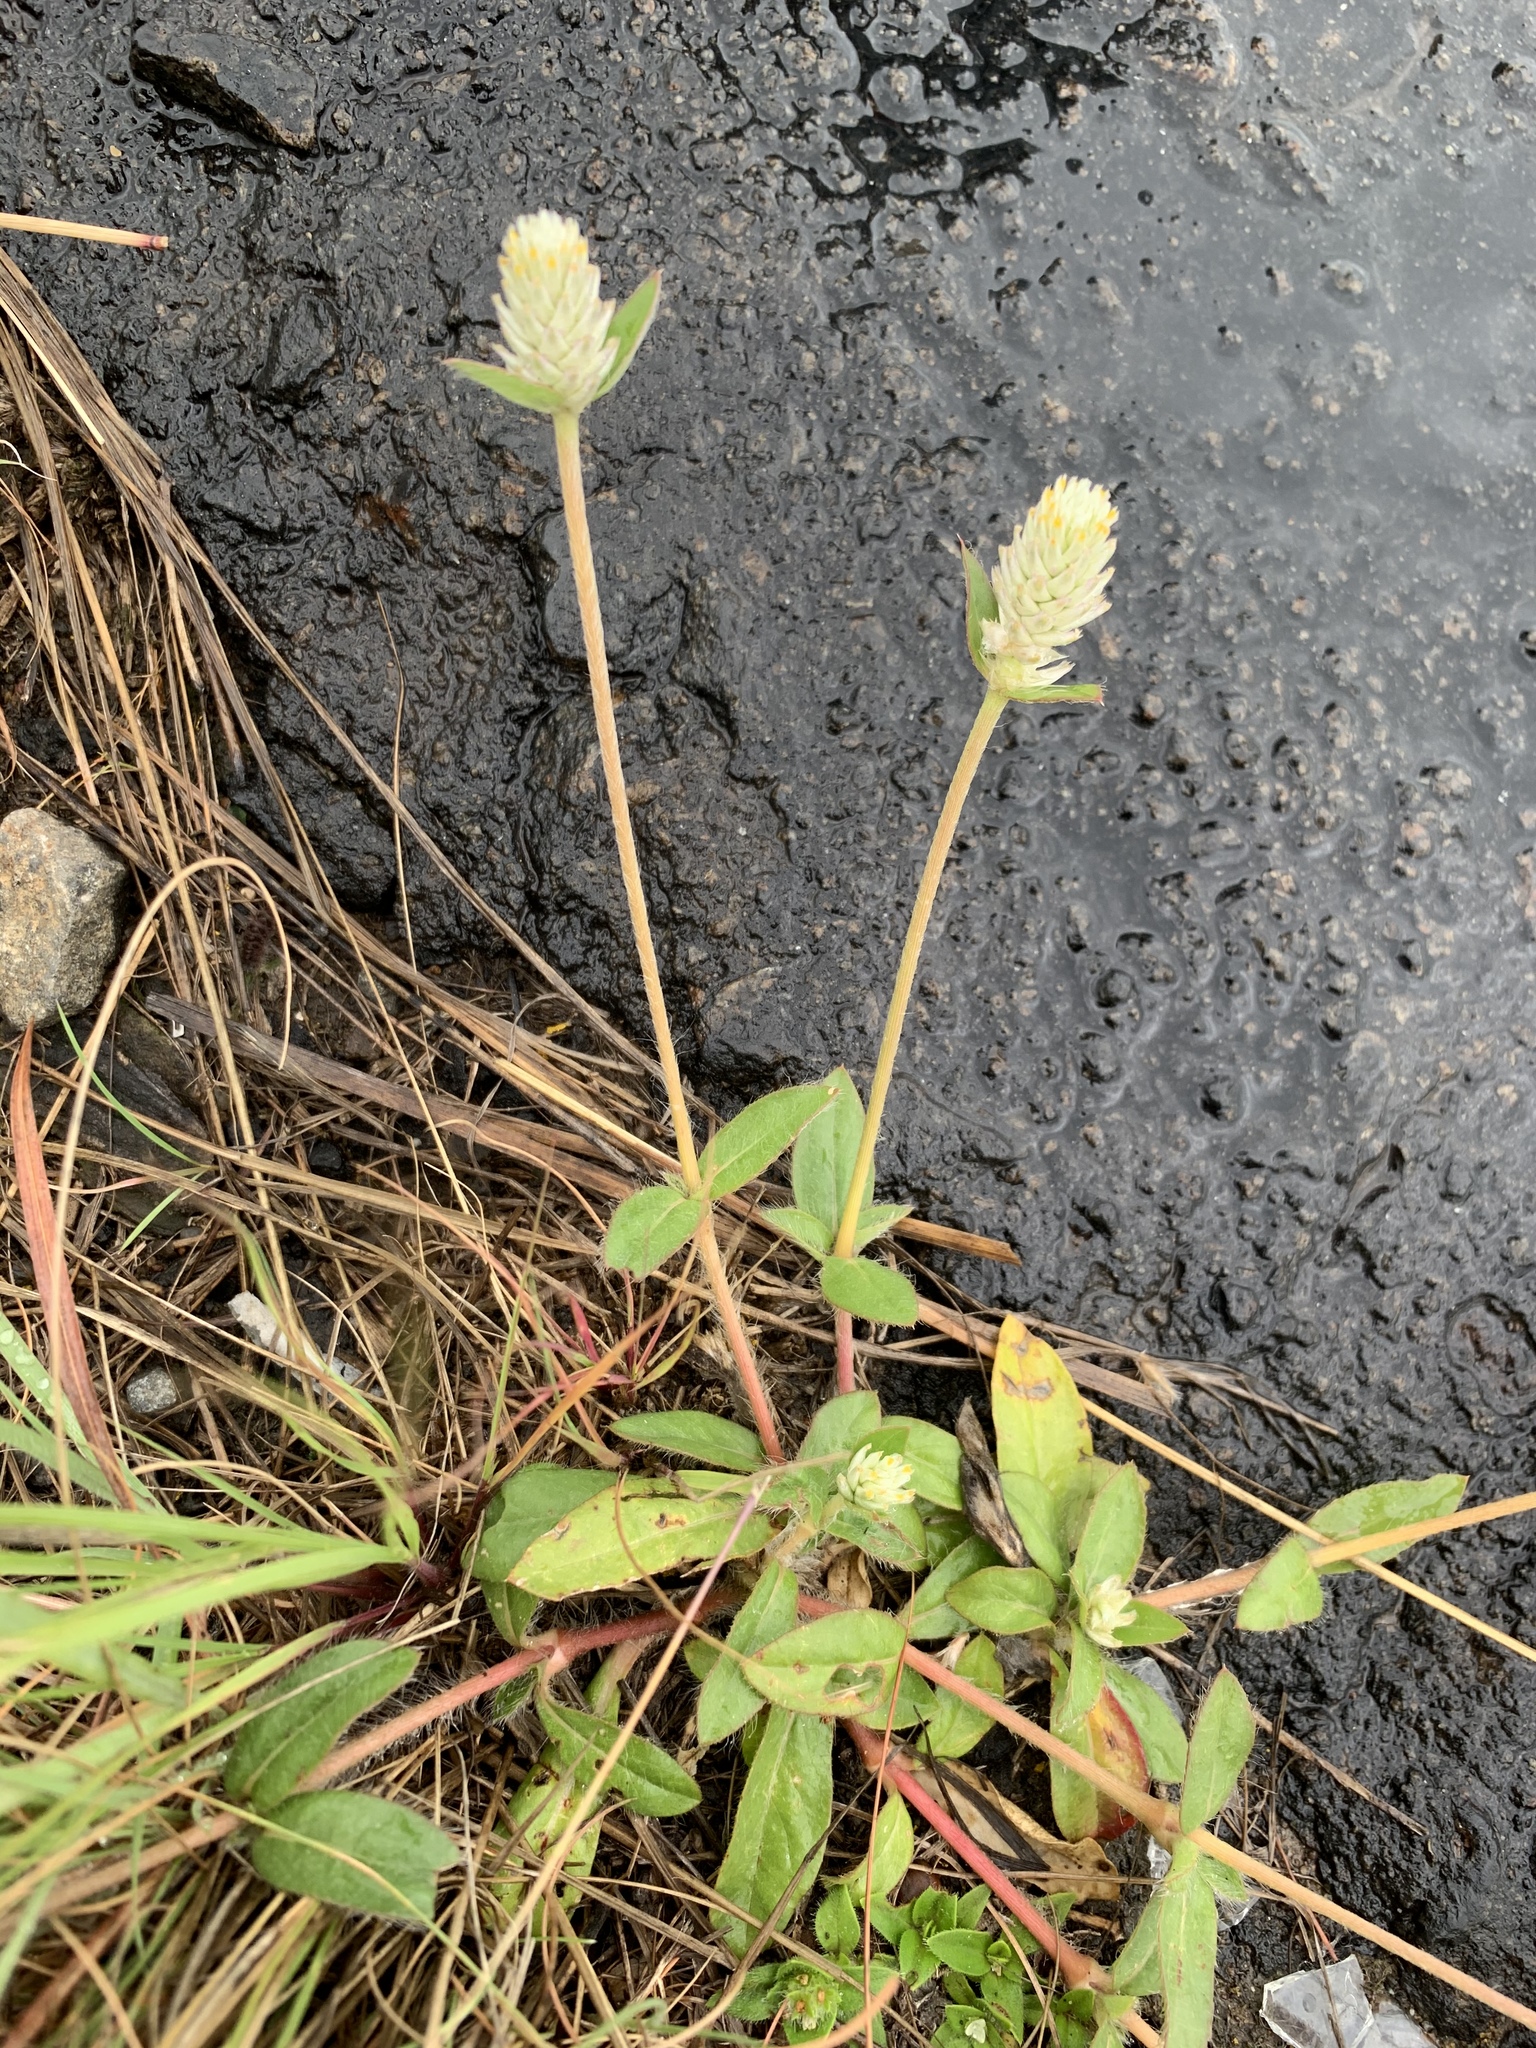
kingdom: Plantae
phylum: Tracheophyta
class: Magnoliopsida
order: Caryophyllales
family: Amaranthaceae
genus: Gomphrena
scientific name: Gomphrena celosioides
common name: Gomphrena-weed
